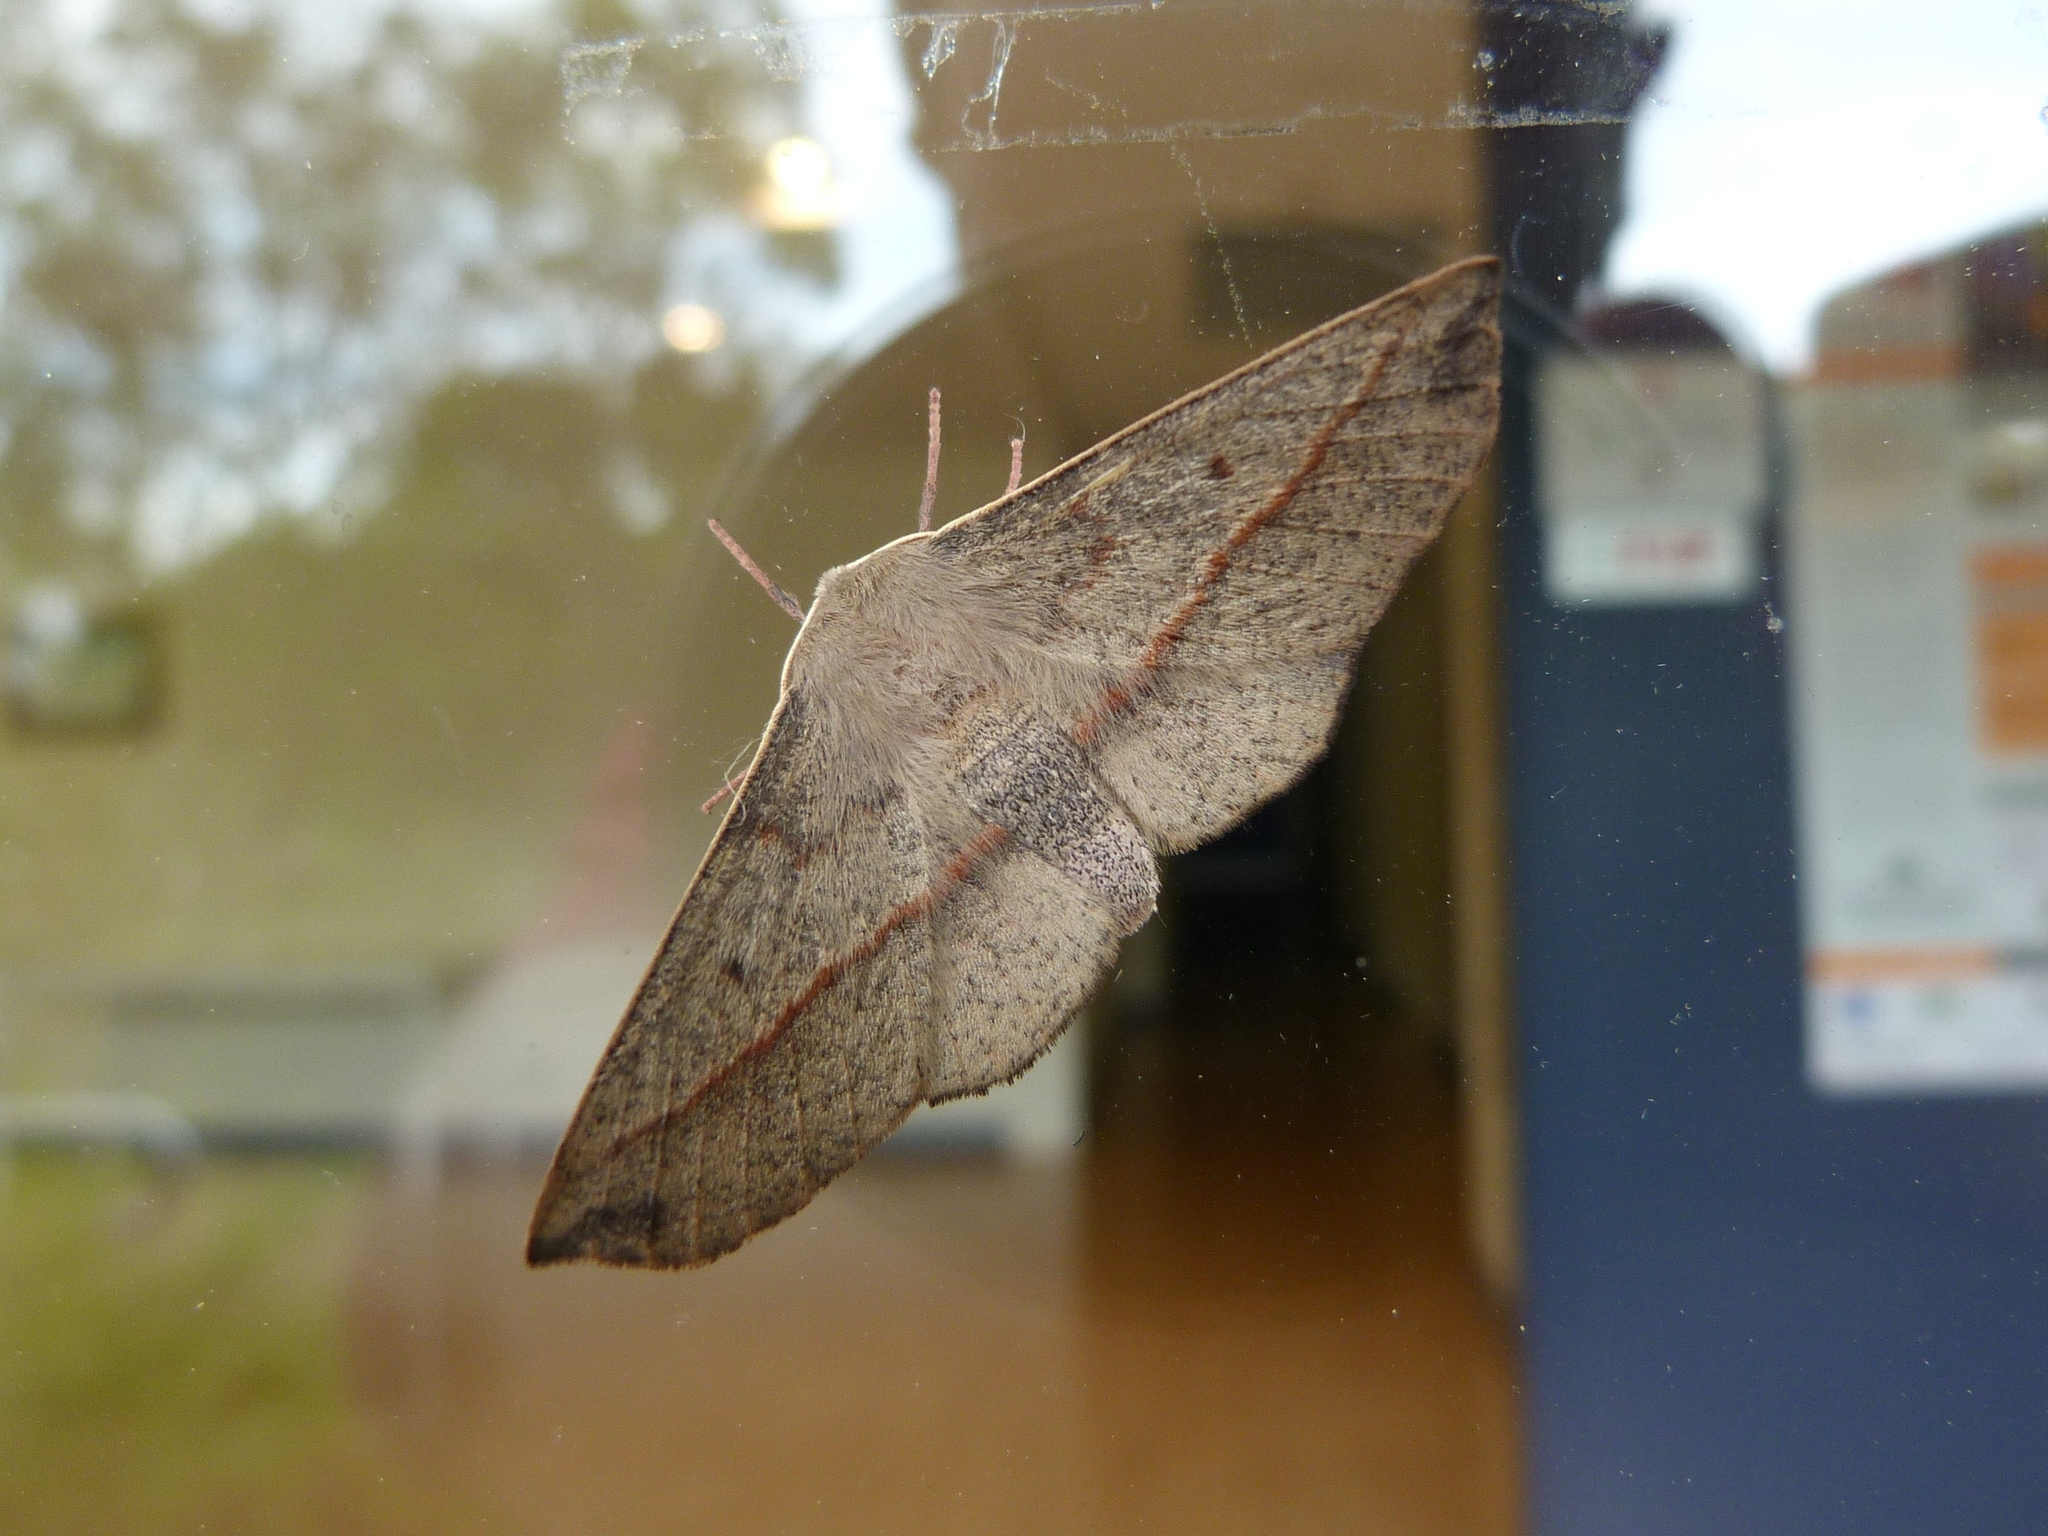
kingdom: Animalia
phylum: Arthropoda
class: Insecta
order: Lepidoptera
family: Geometridae
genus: Antictenia
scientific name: Antictenia punctunculus
